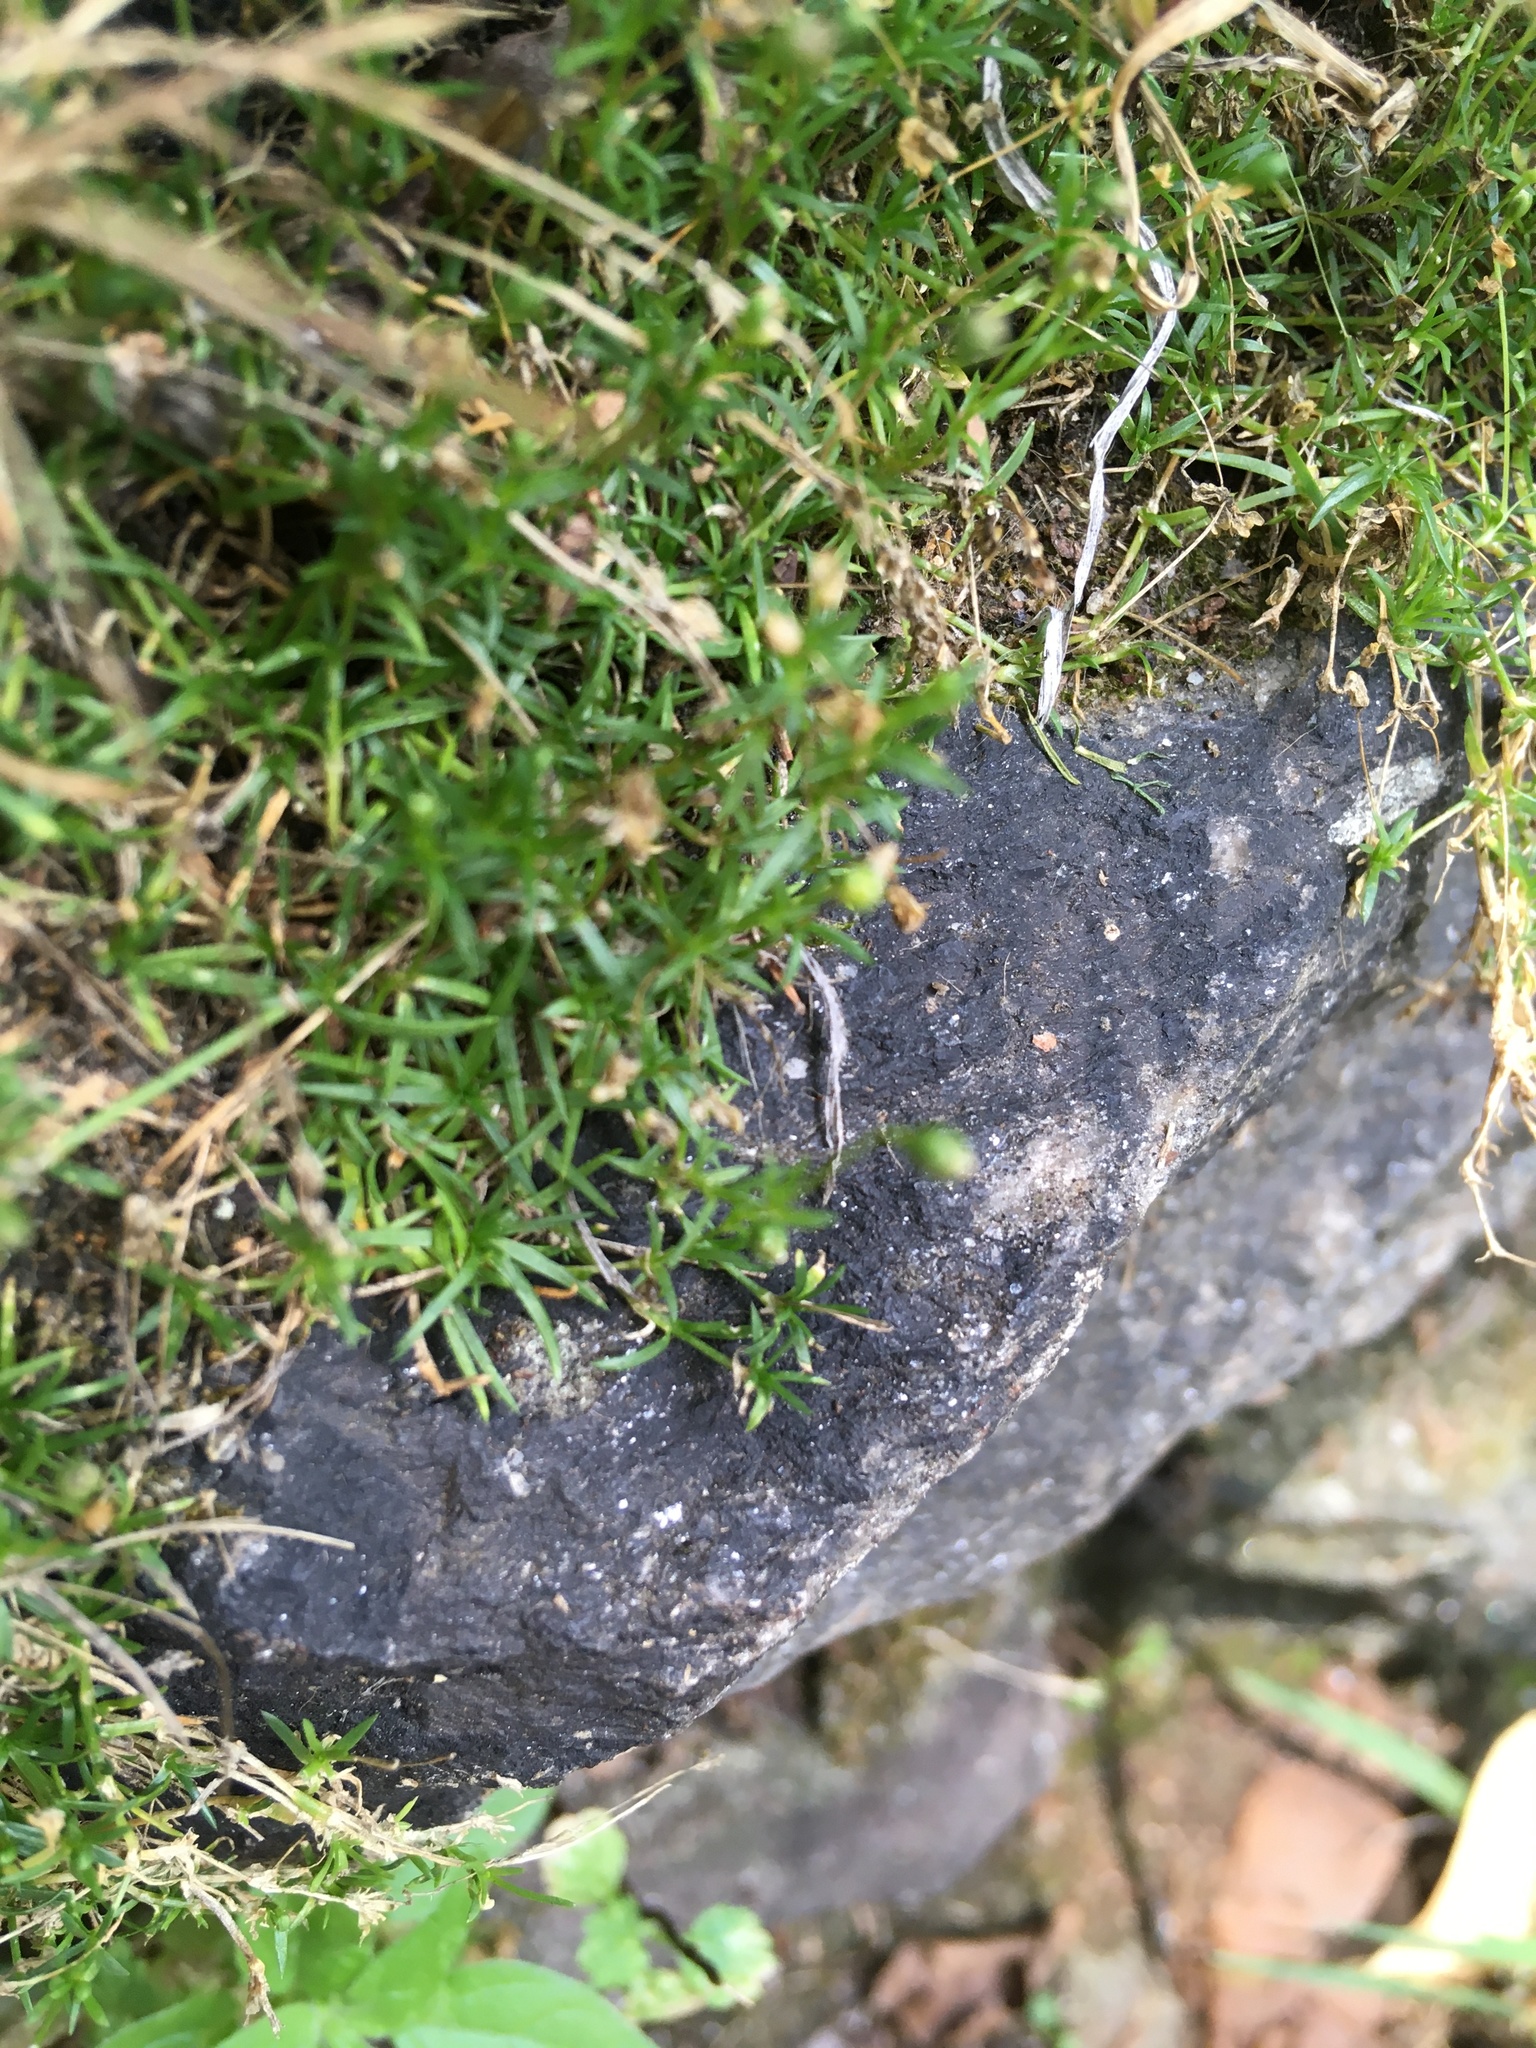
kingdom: Plantae
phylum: Tracheophyta
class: Magnoliopsida
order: Caryophyllales
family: Caryophyllaceae
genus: Sagina
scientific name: Sagina procumbens
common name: Procumbent pearlwort
